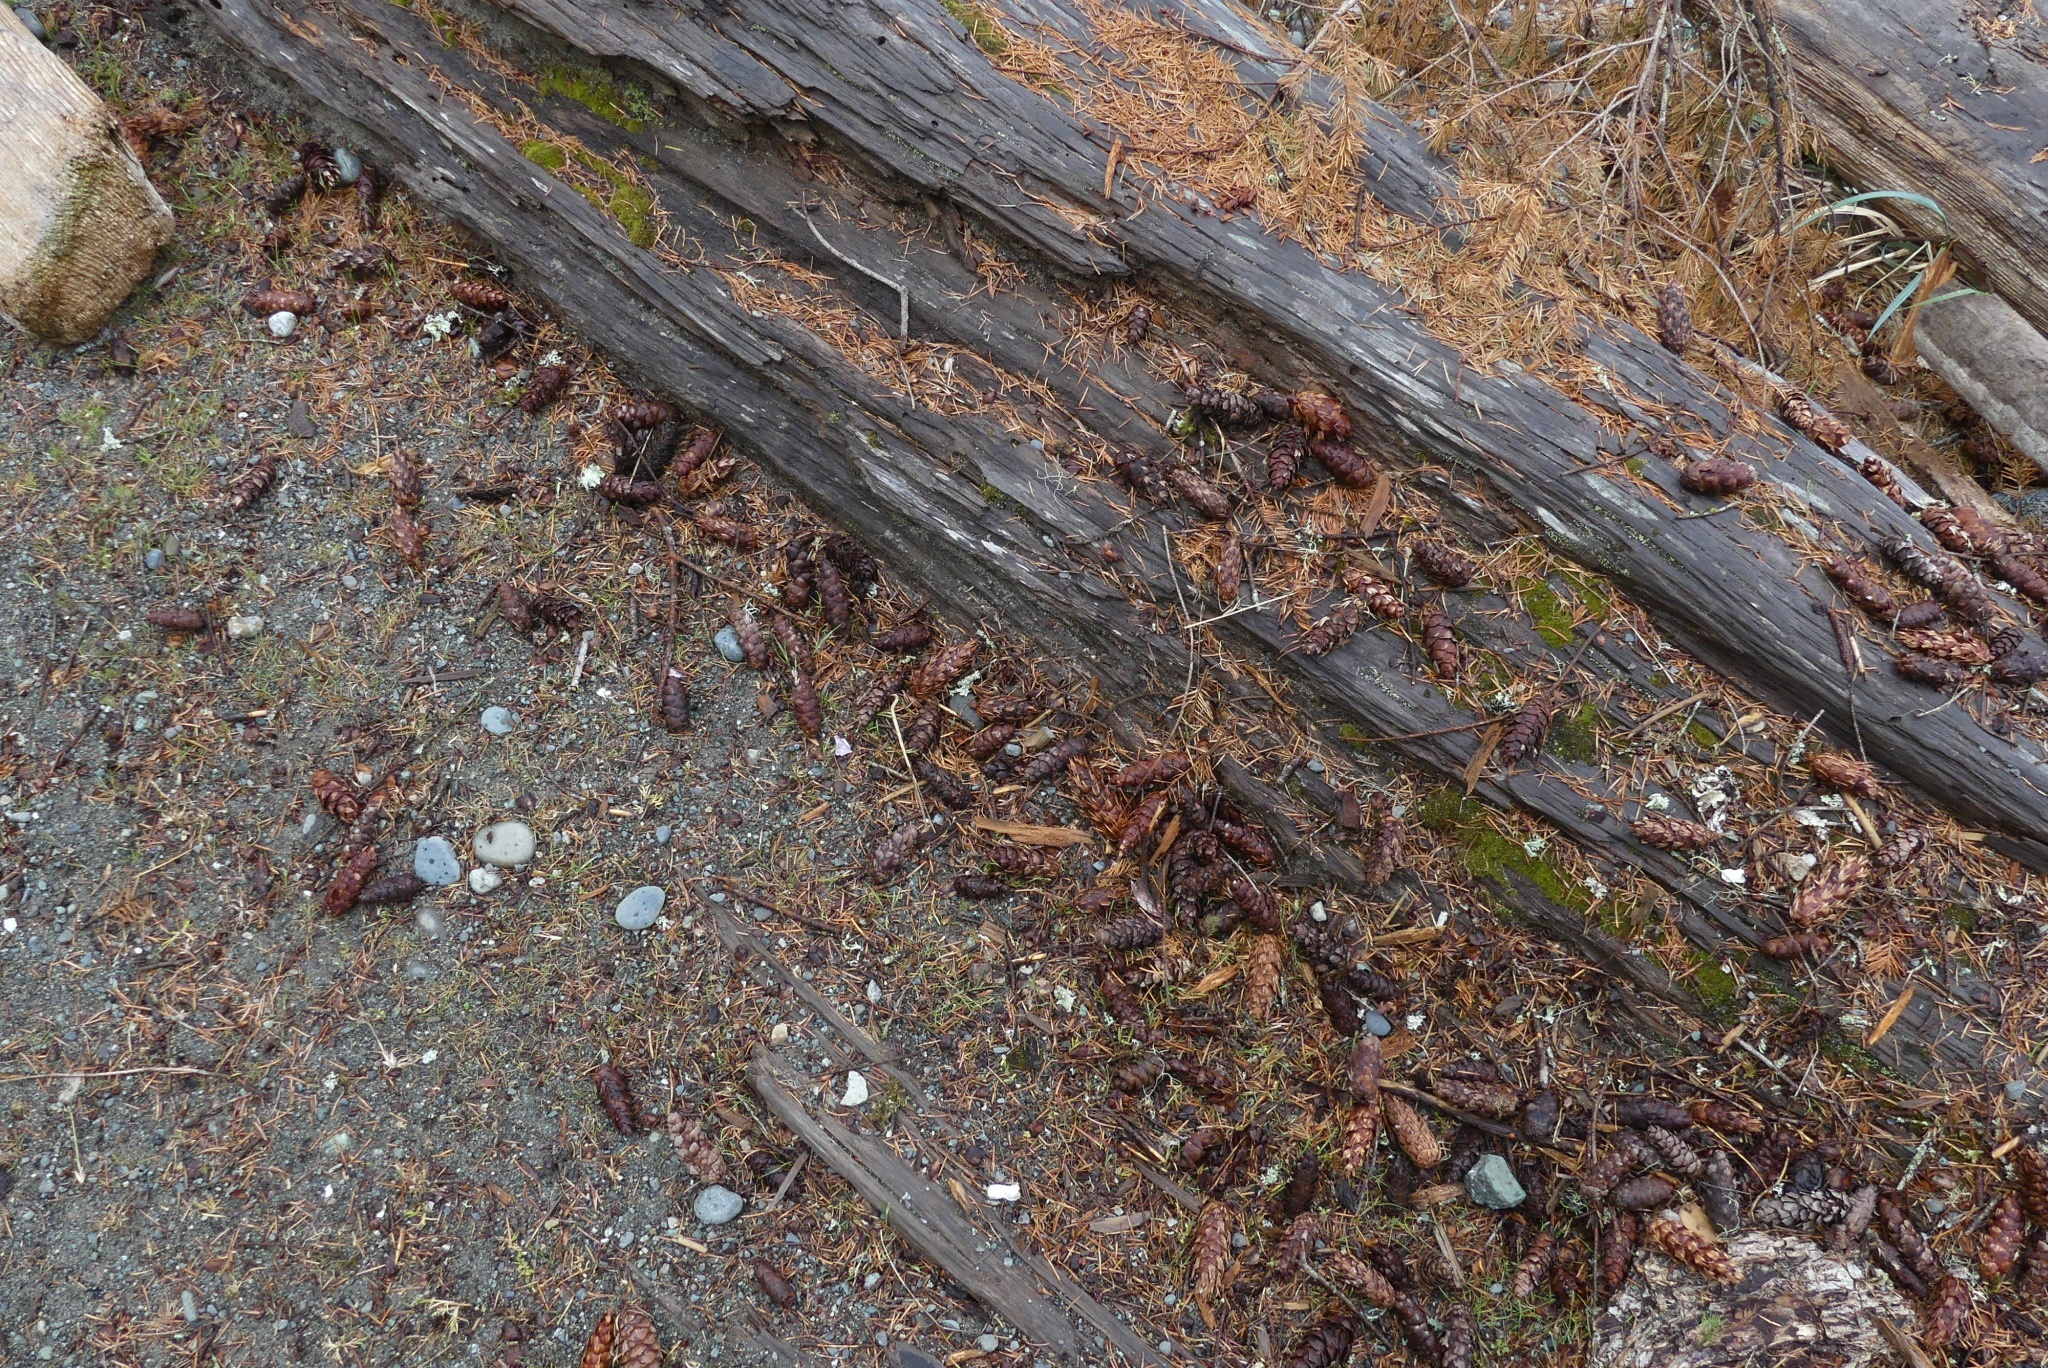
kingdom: Plantae
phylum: Tracheophyta
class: Pinopsida
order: Pinales
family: Pinaceae
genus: Pseudotsuga
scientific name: Pseudotsuga menziesii
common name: Douglas fir
